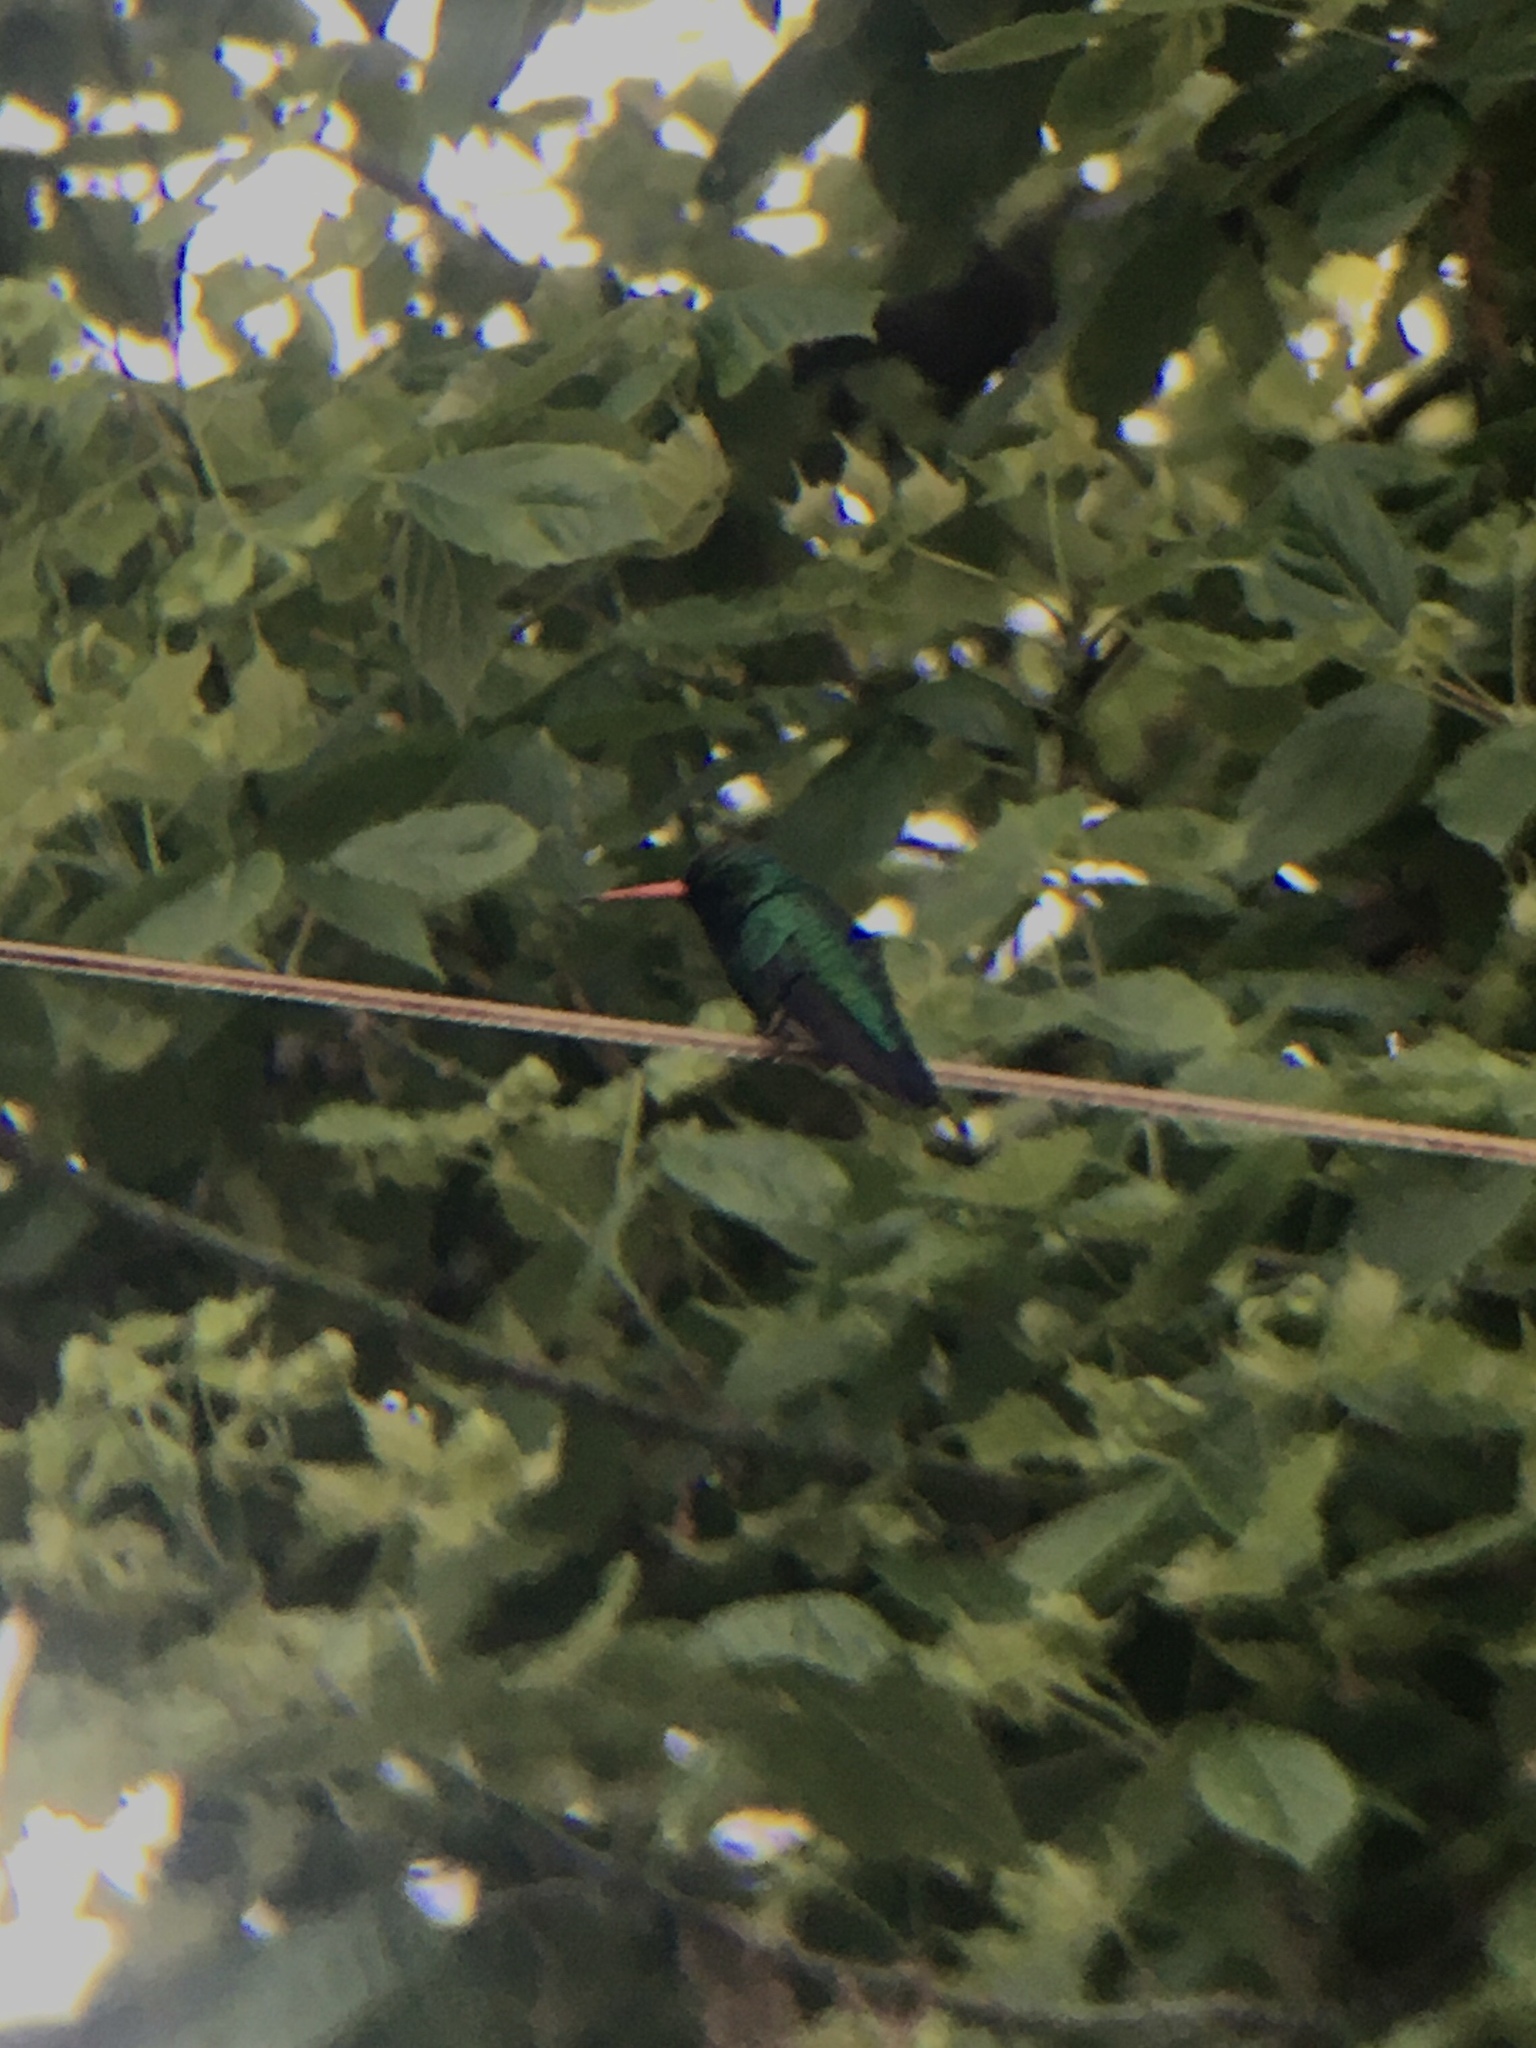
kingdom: Animalia
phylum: Chordata
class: Aves
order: Apodiformes
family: Trochilidae
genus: Chlorostilbon
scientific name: Chlorostilbon lucidus
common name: Glittering-bellied emerald
